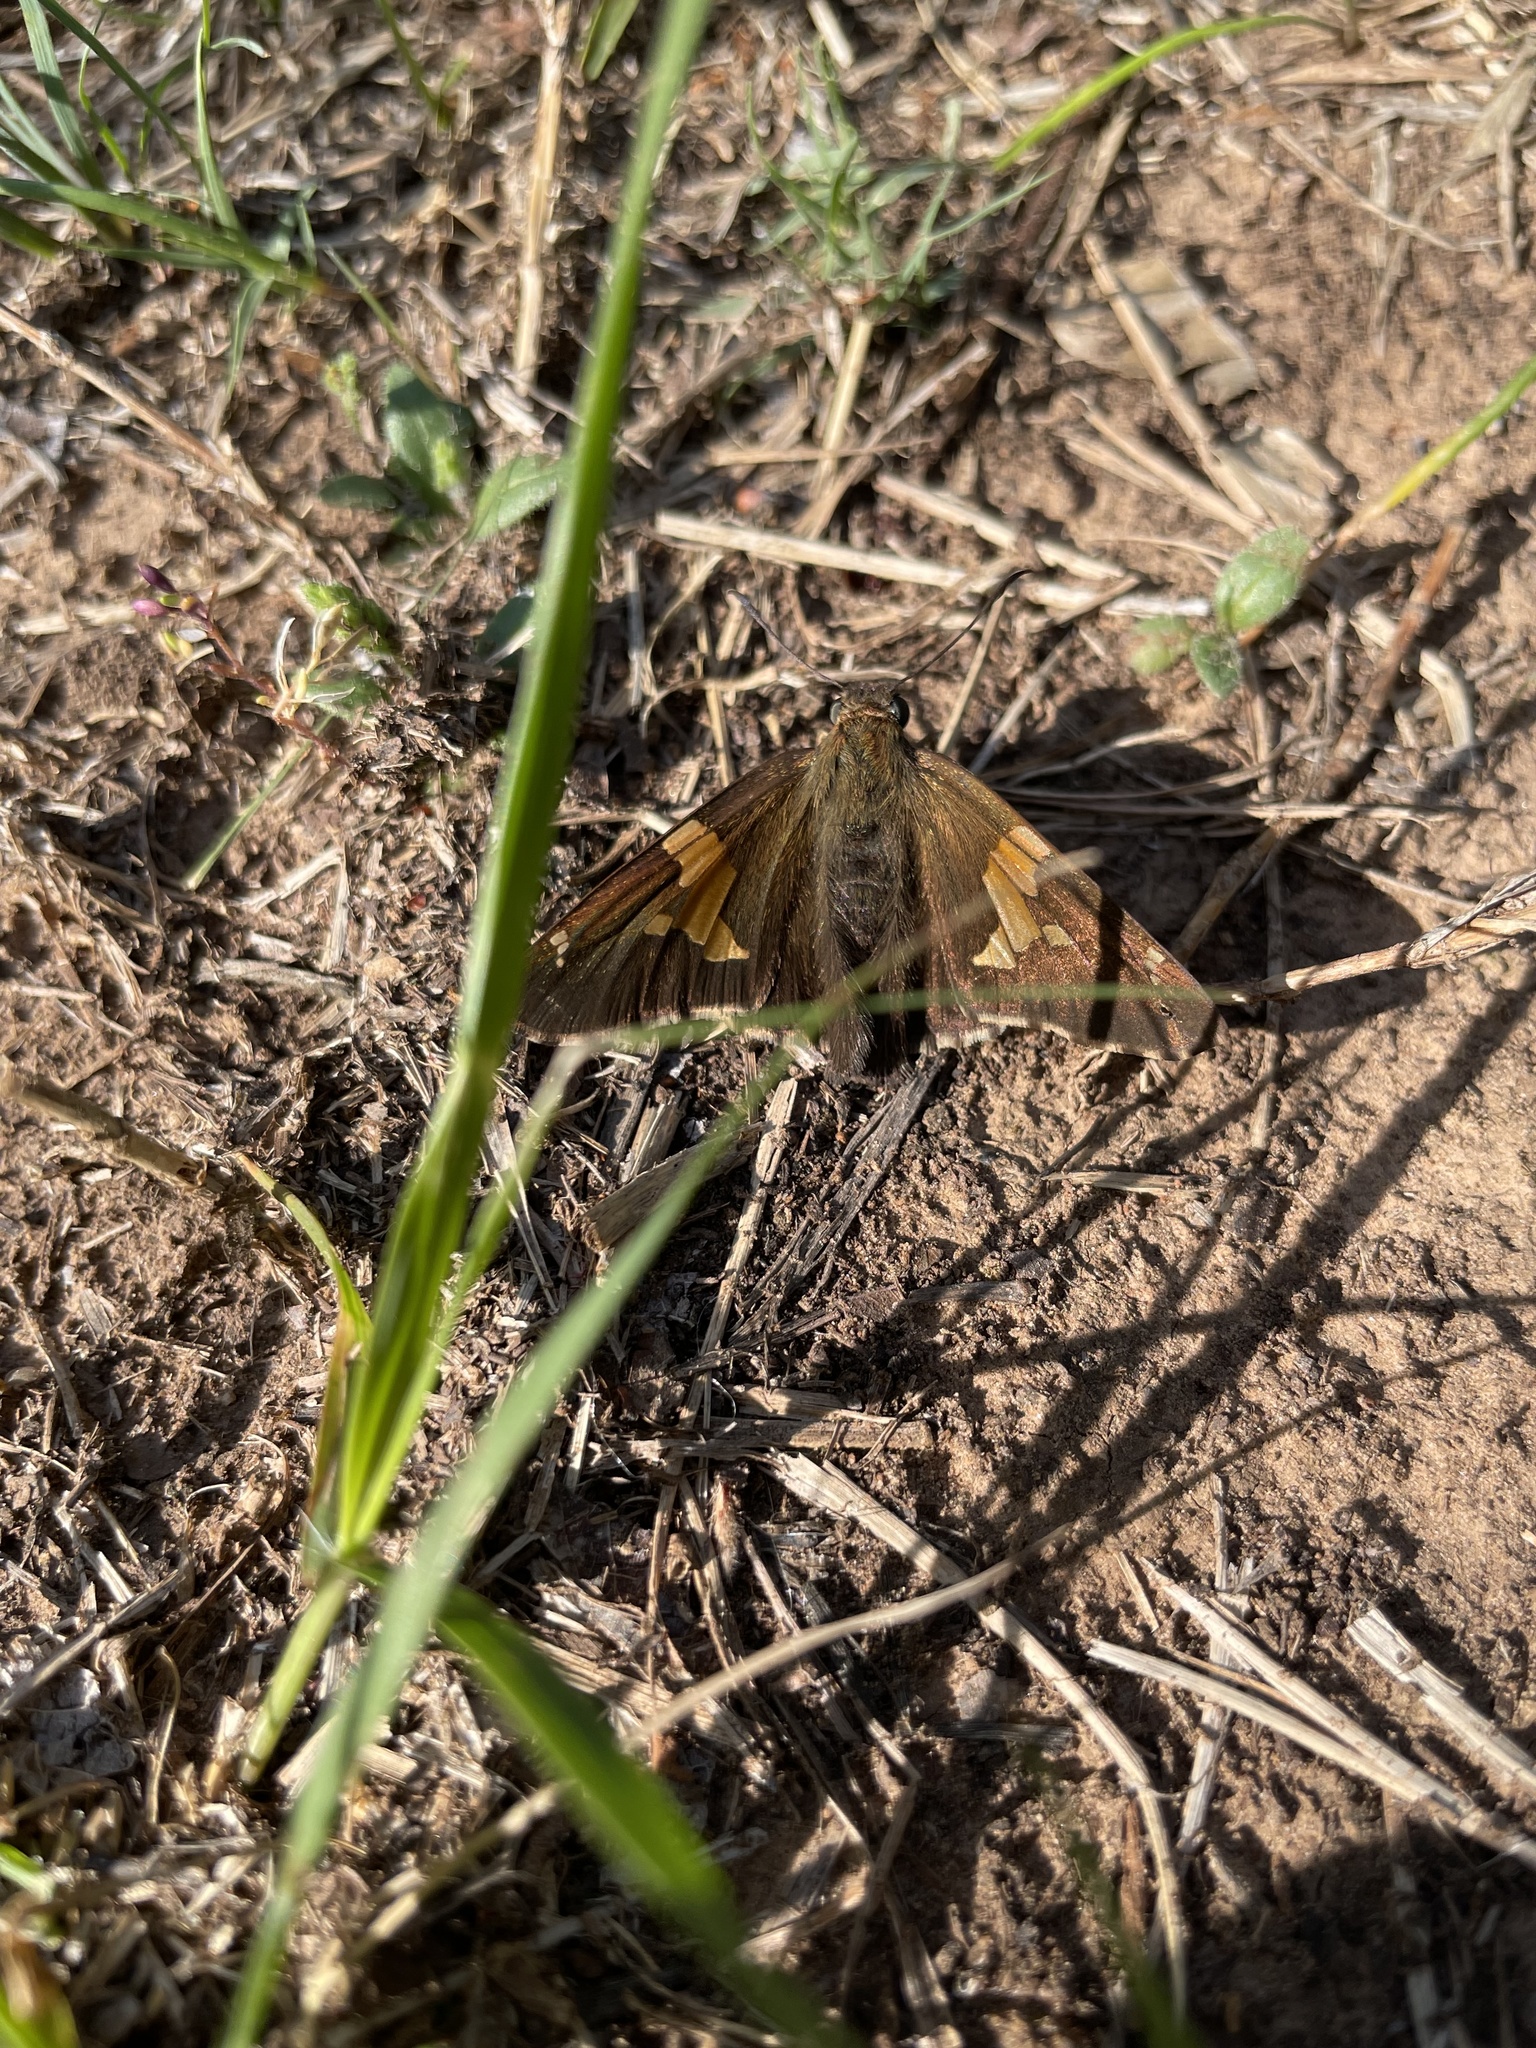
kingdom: Animalia
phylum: Arthropoda
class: Insecta
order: Lepidoptera
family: Hesperiidae
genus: Epargyreus
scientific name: Epargyreus clarus
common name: Silver-spotted skipper
